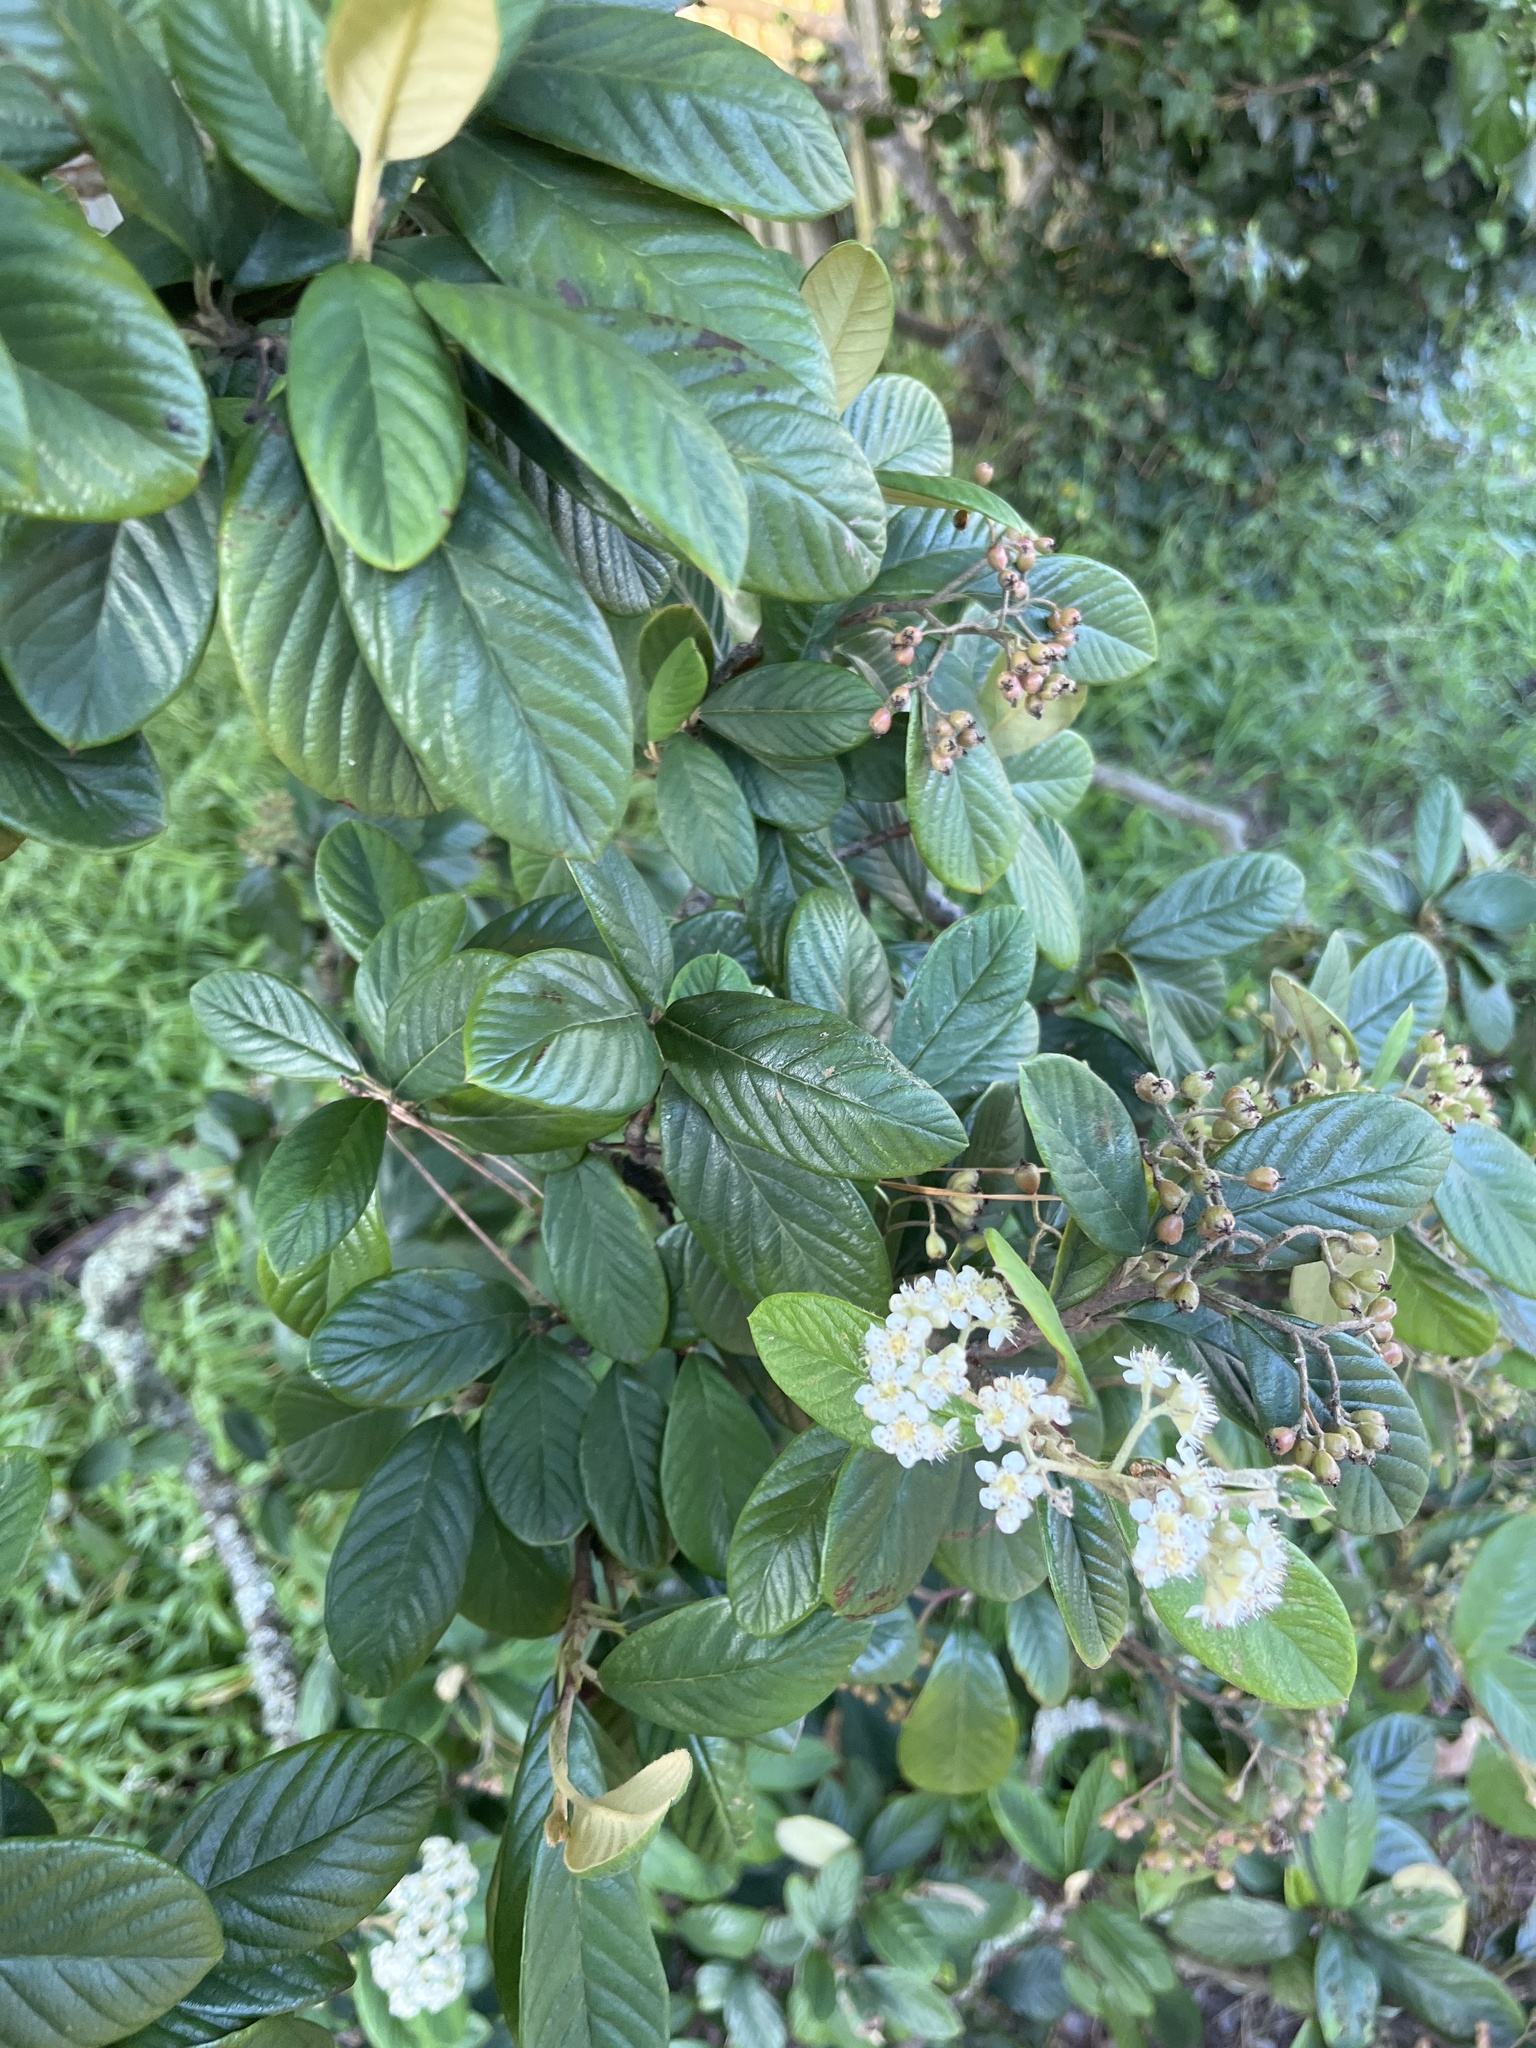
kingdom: Plantae
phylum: Tracheophyta
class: Magnoliopsida
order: Rosales
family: Rosaceae
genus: Cotoneaster
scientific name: Cotoneaster coriaceus
